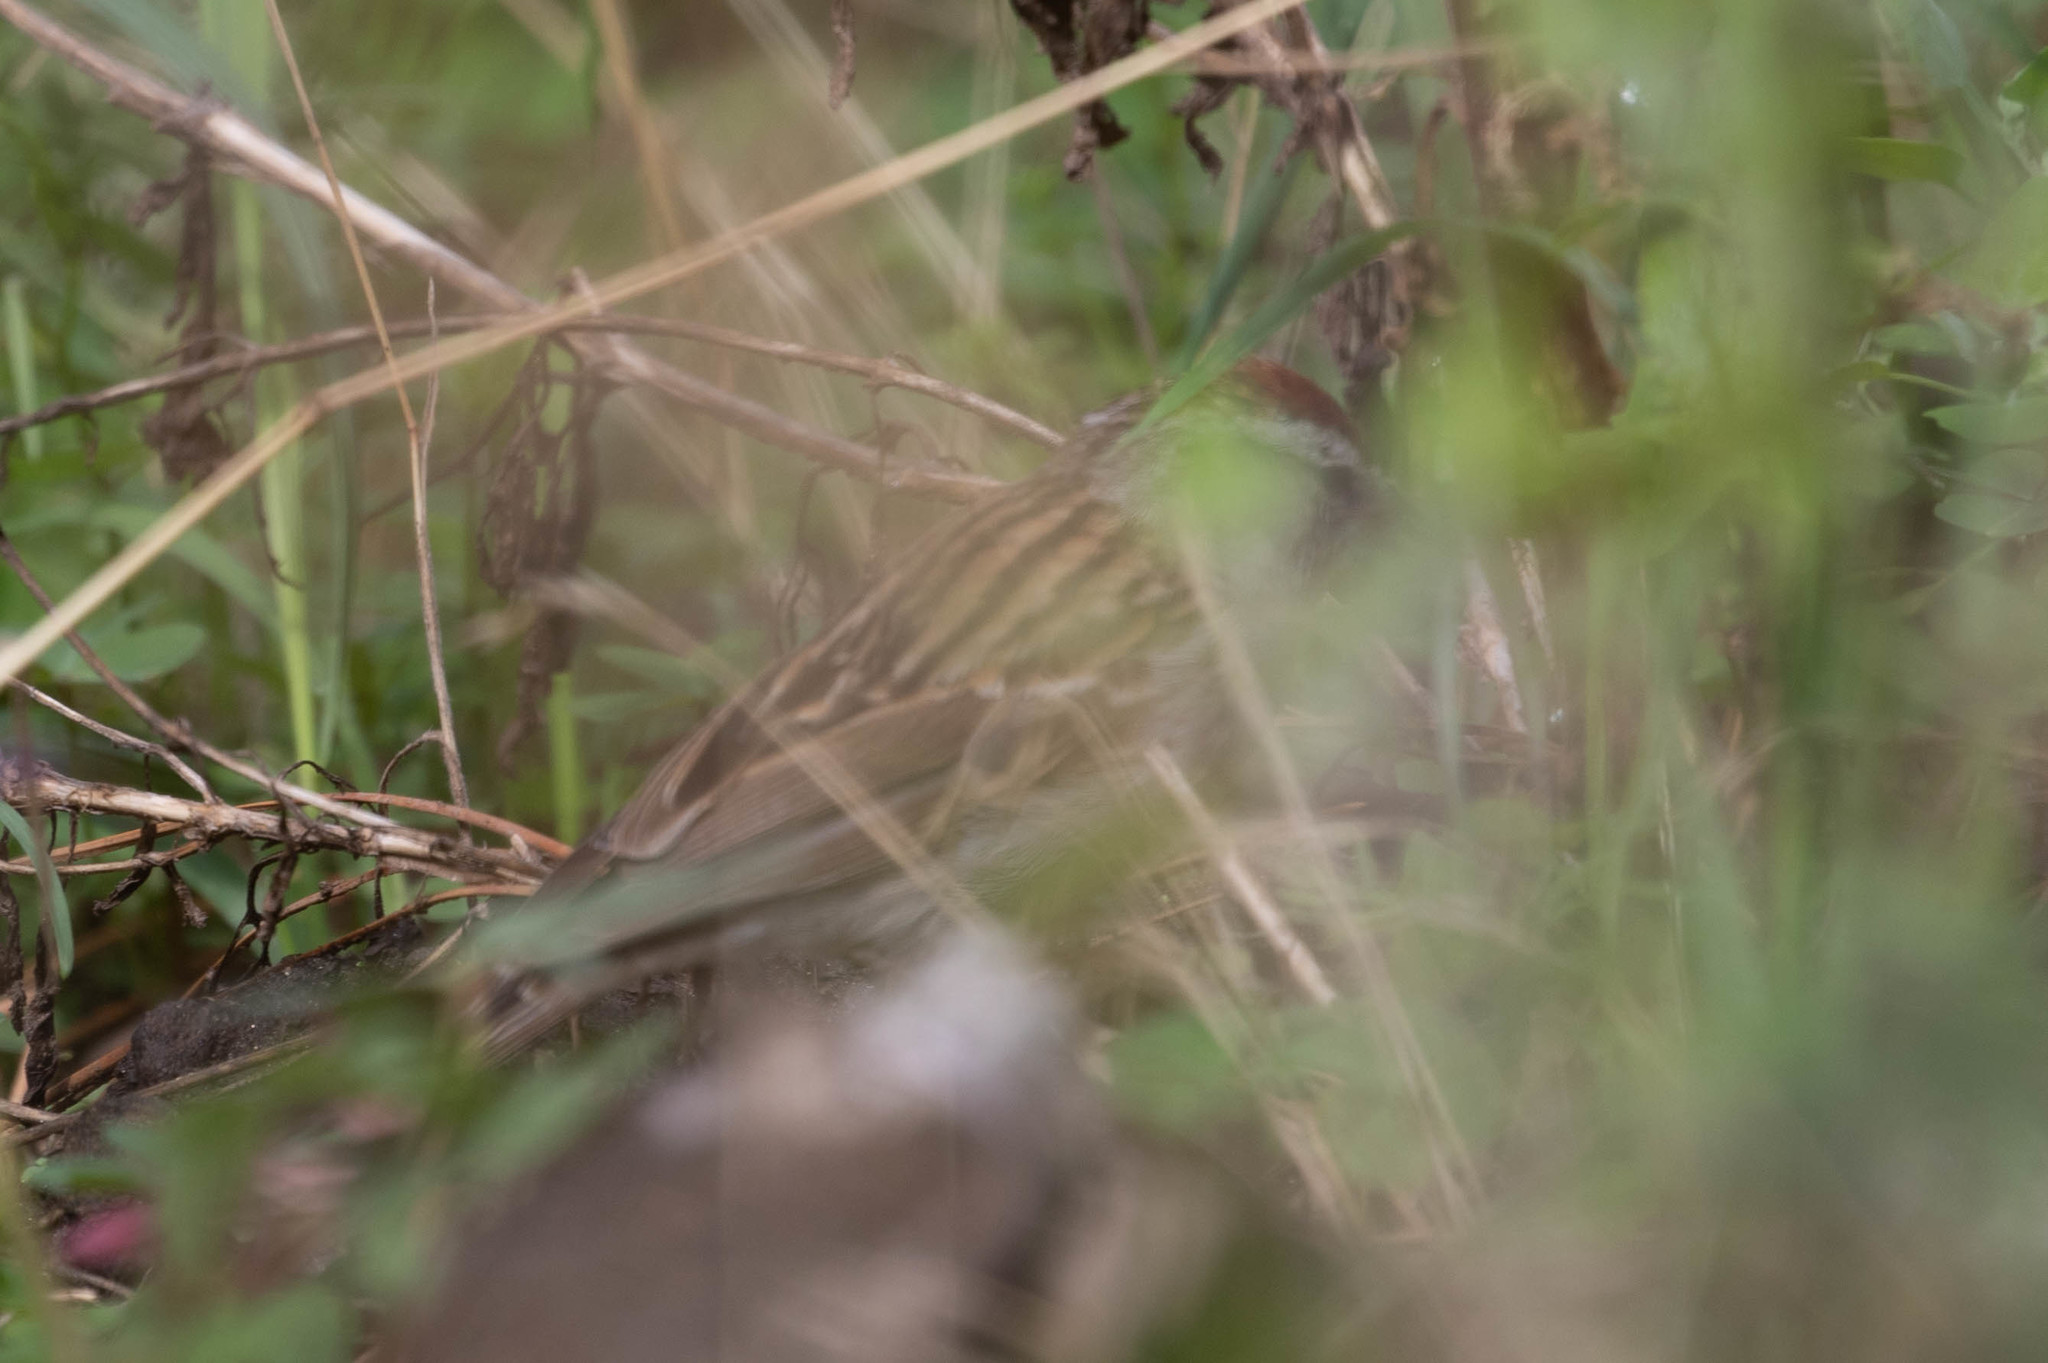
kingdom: Animalia
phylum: Chordata
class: Aves
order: Passeriformes
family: Passerellidae
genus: Spizella
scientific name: Spizella passerina
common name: Chipping sparrow
